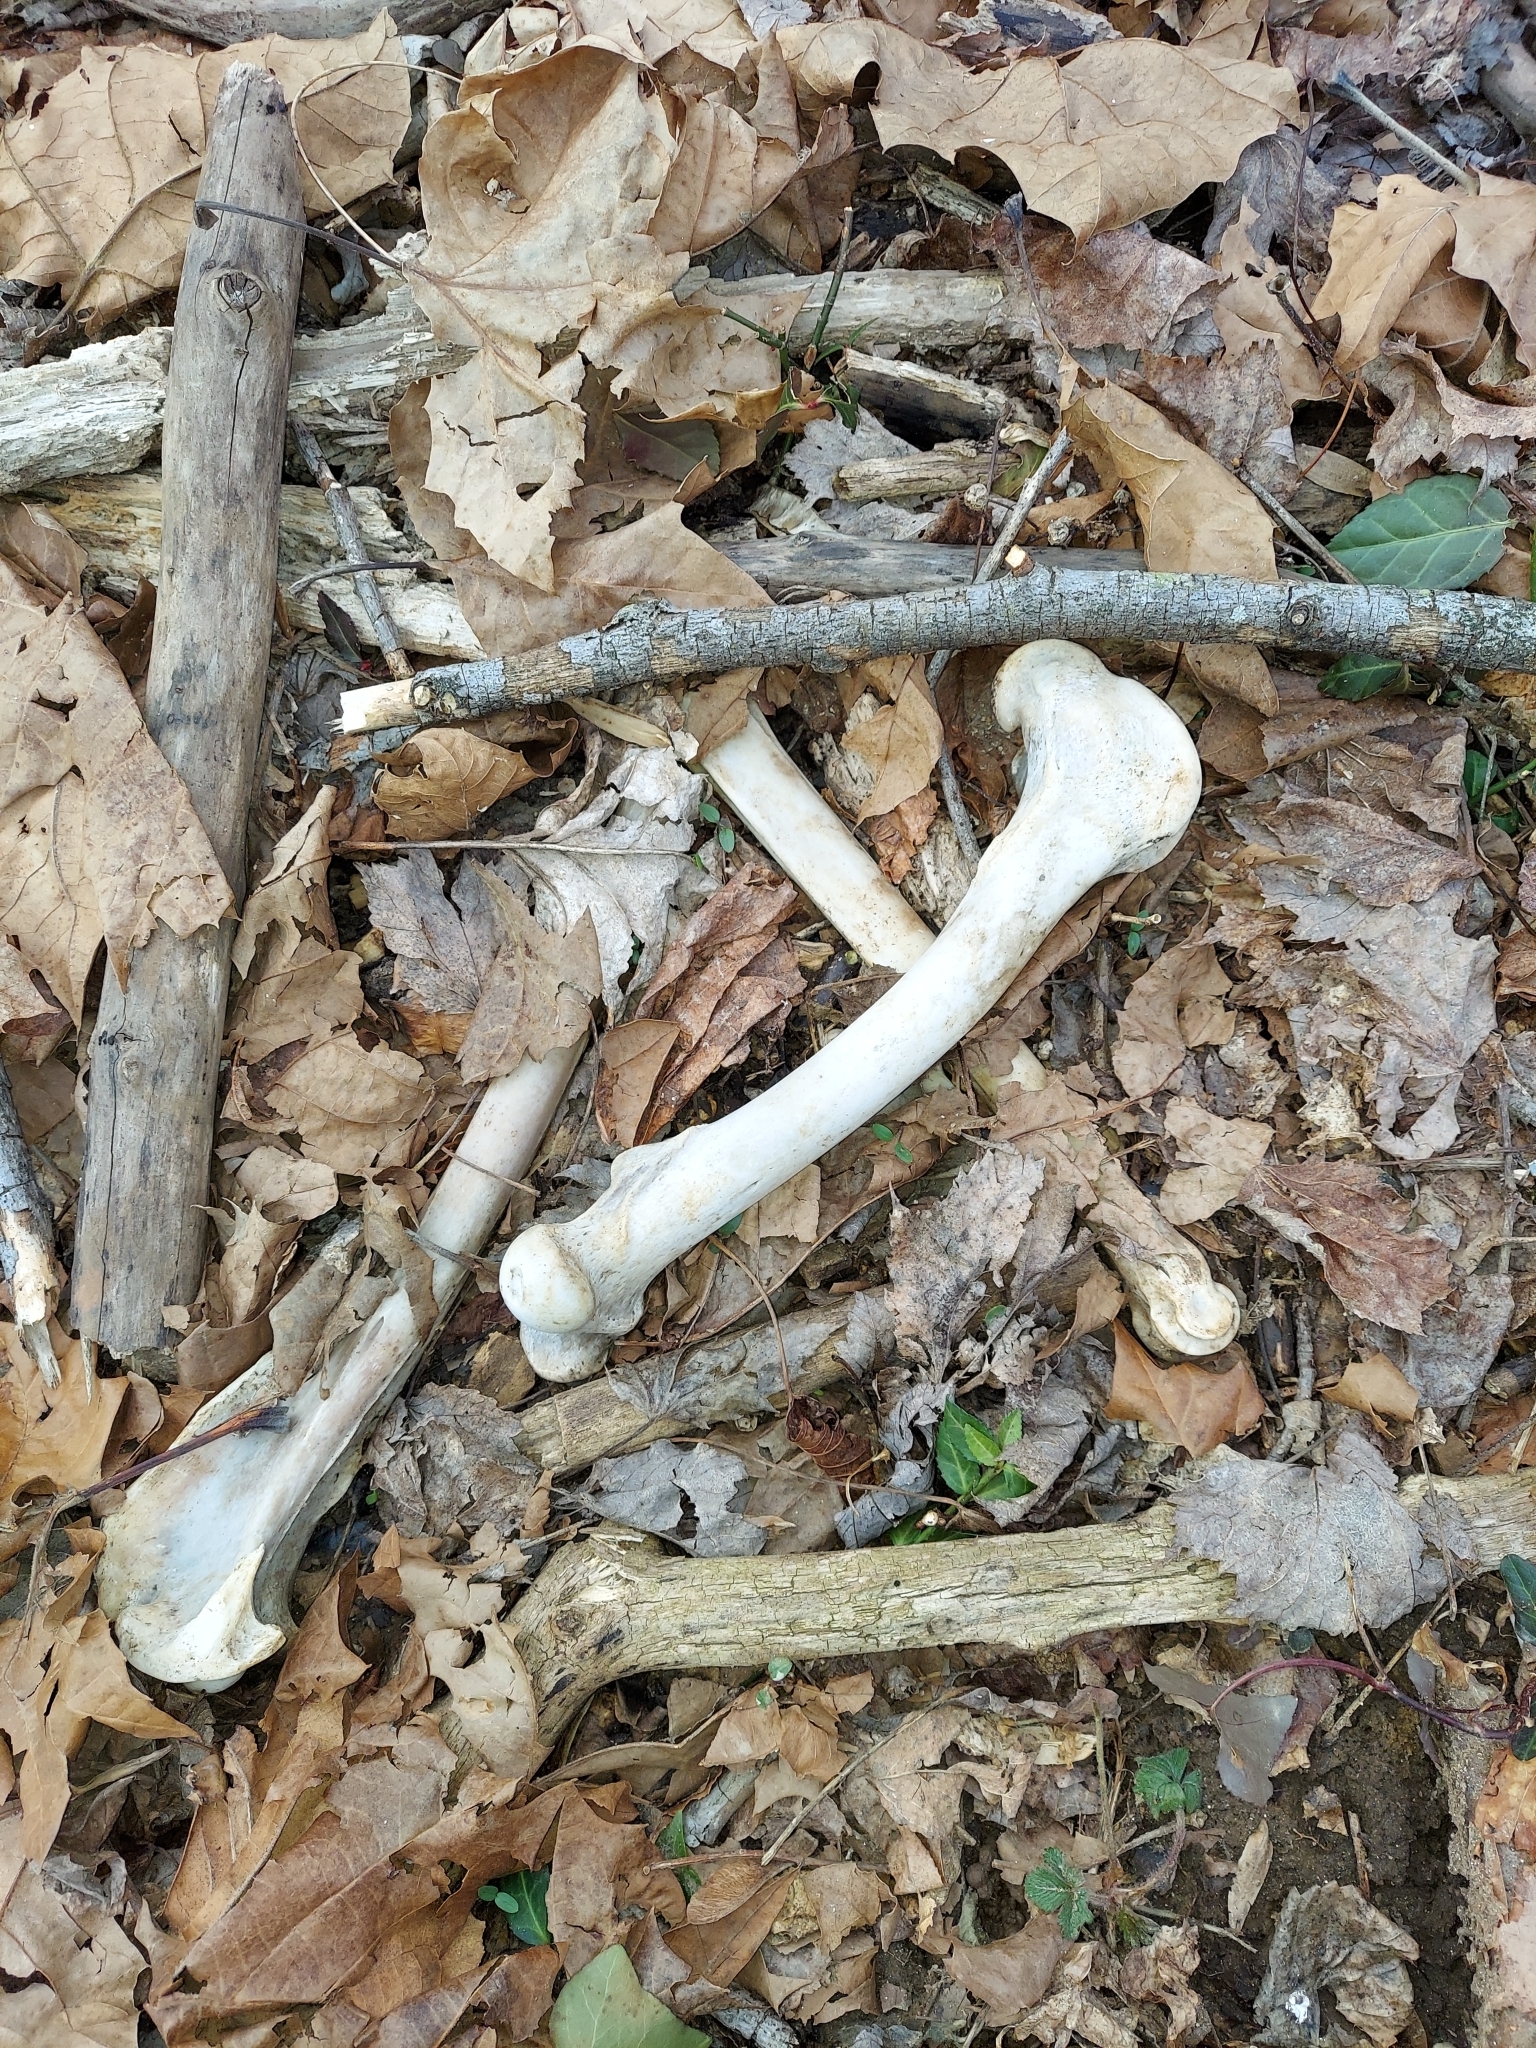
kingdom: Animalia
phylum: Chordata
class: Mammalia
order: Artiodactyla
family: Cervidae
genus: Odocoileus
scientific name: Odocoileus virginianus
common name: White-tailed deer
